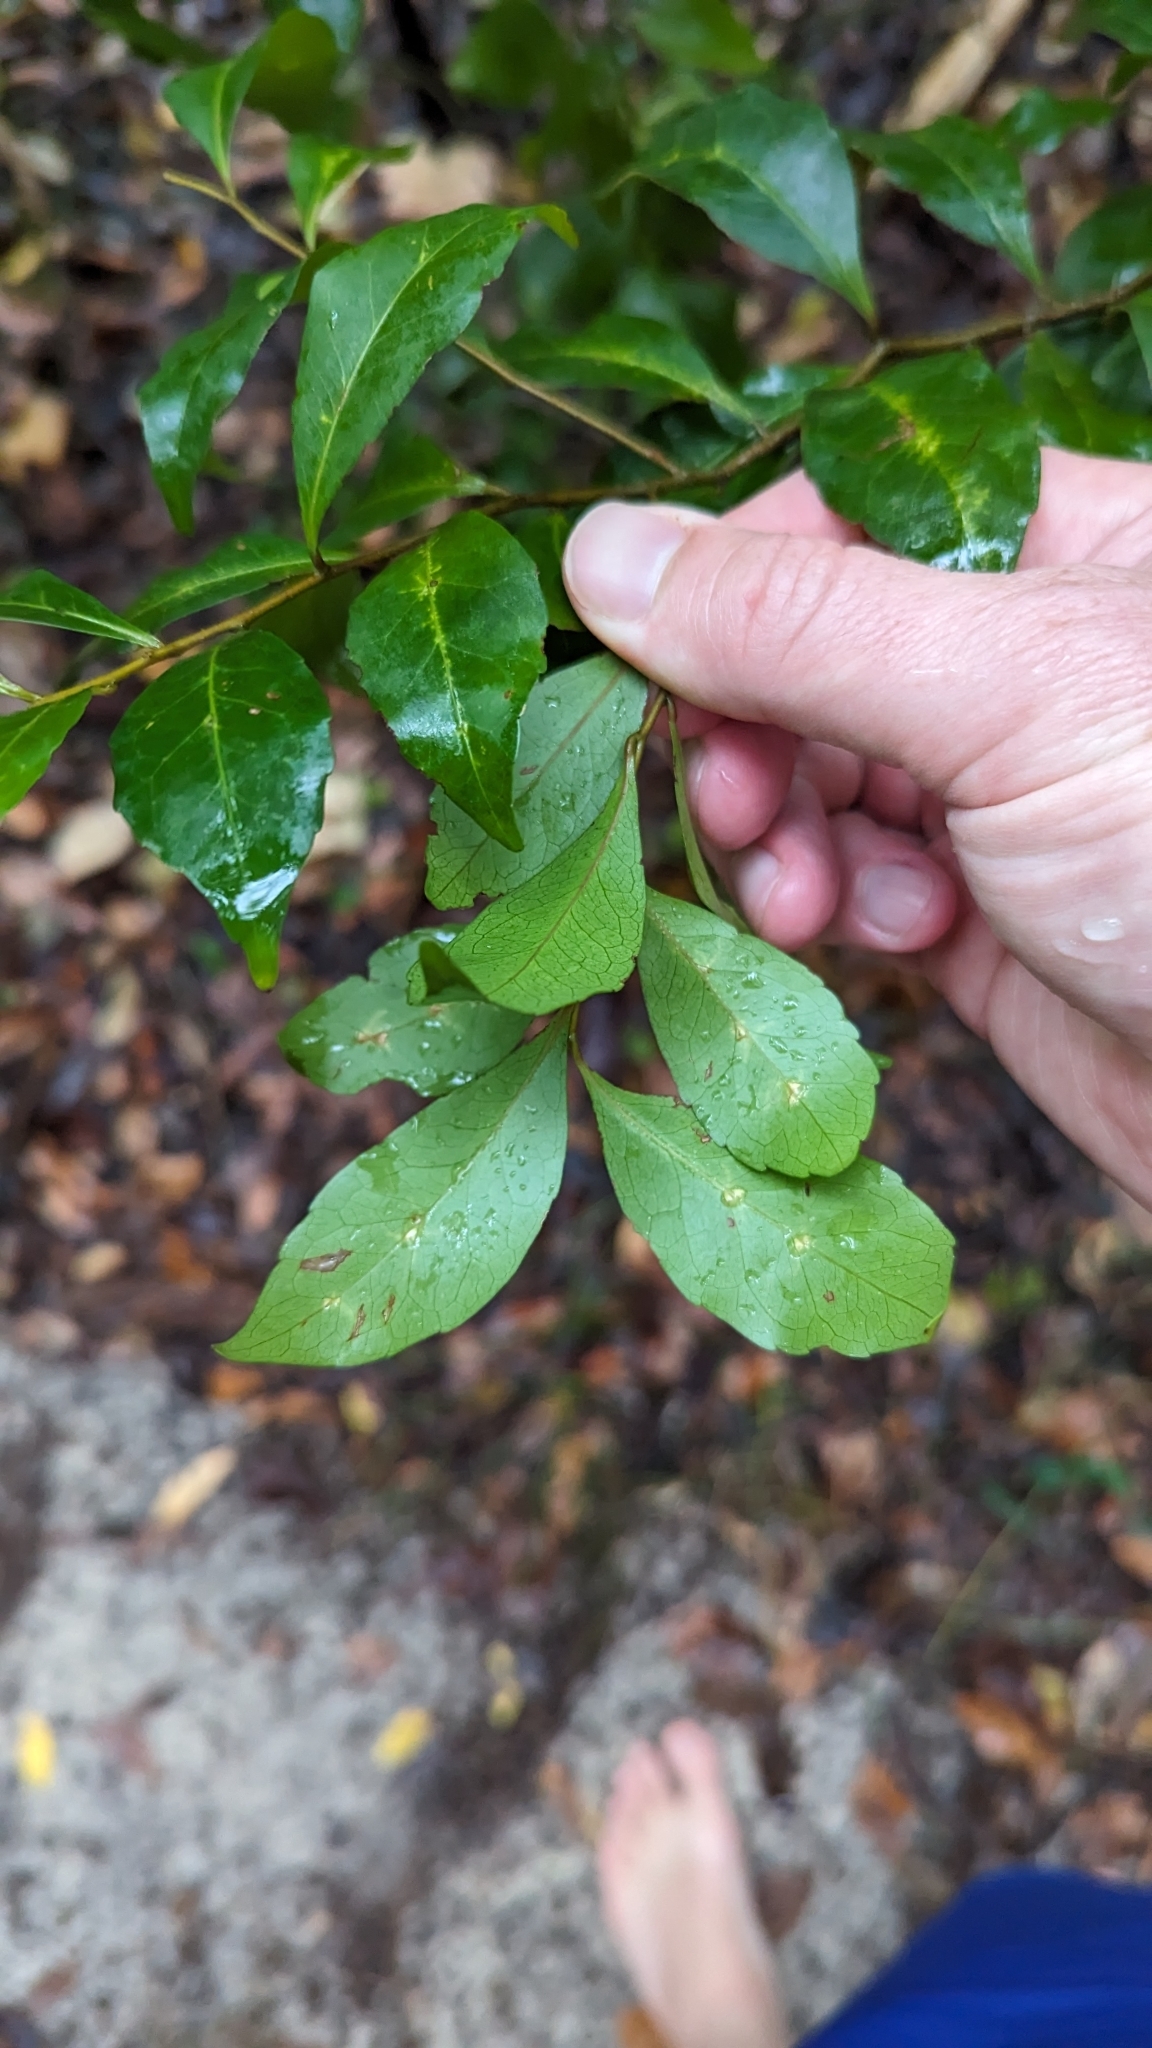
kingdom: Plantae
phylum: Tracheophyta
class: Magnoliopsida
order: Oxalidales
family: Elaeocarpaceae
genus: Elaeocarpus
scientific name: Elaeocarpus obovatus
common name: Freckled oliveberry
